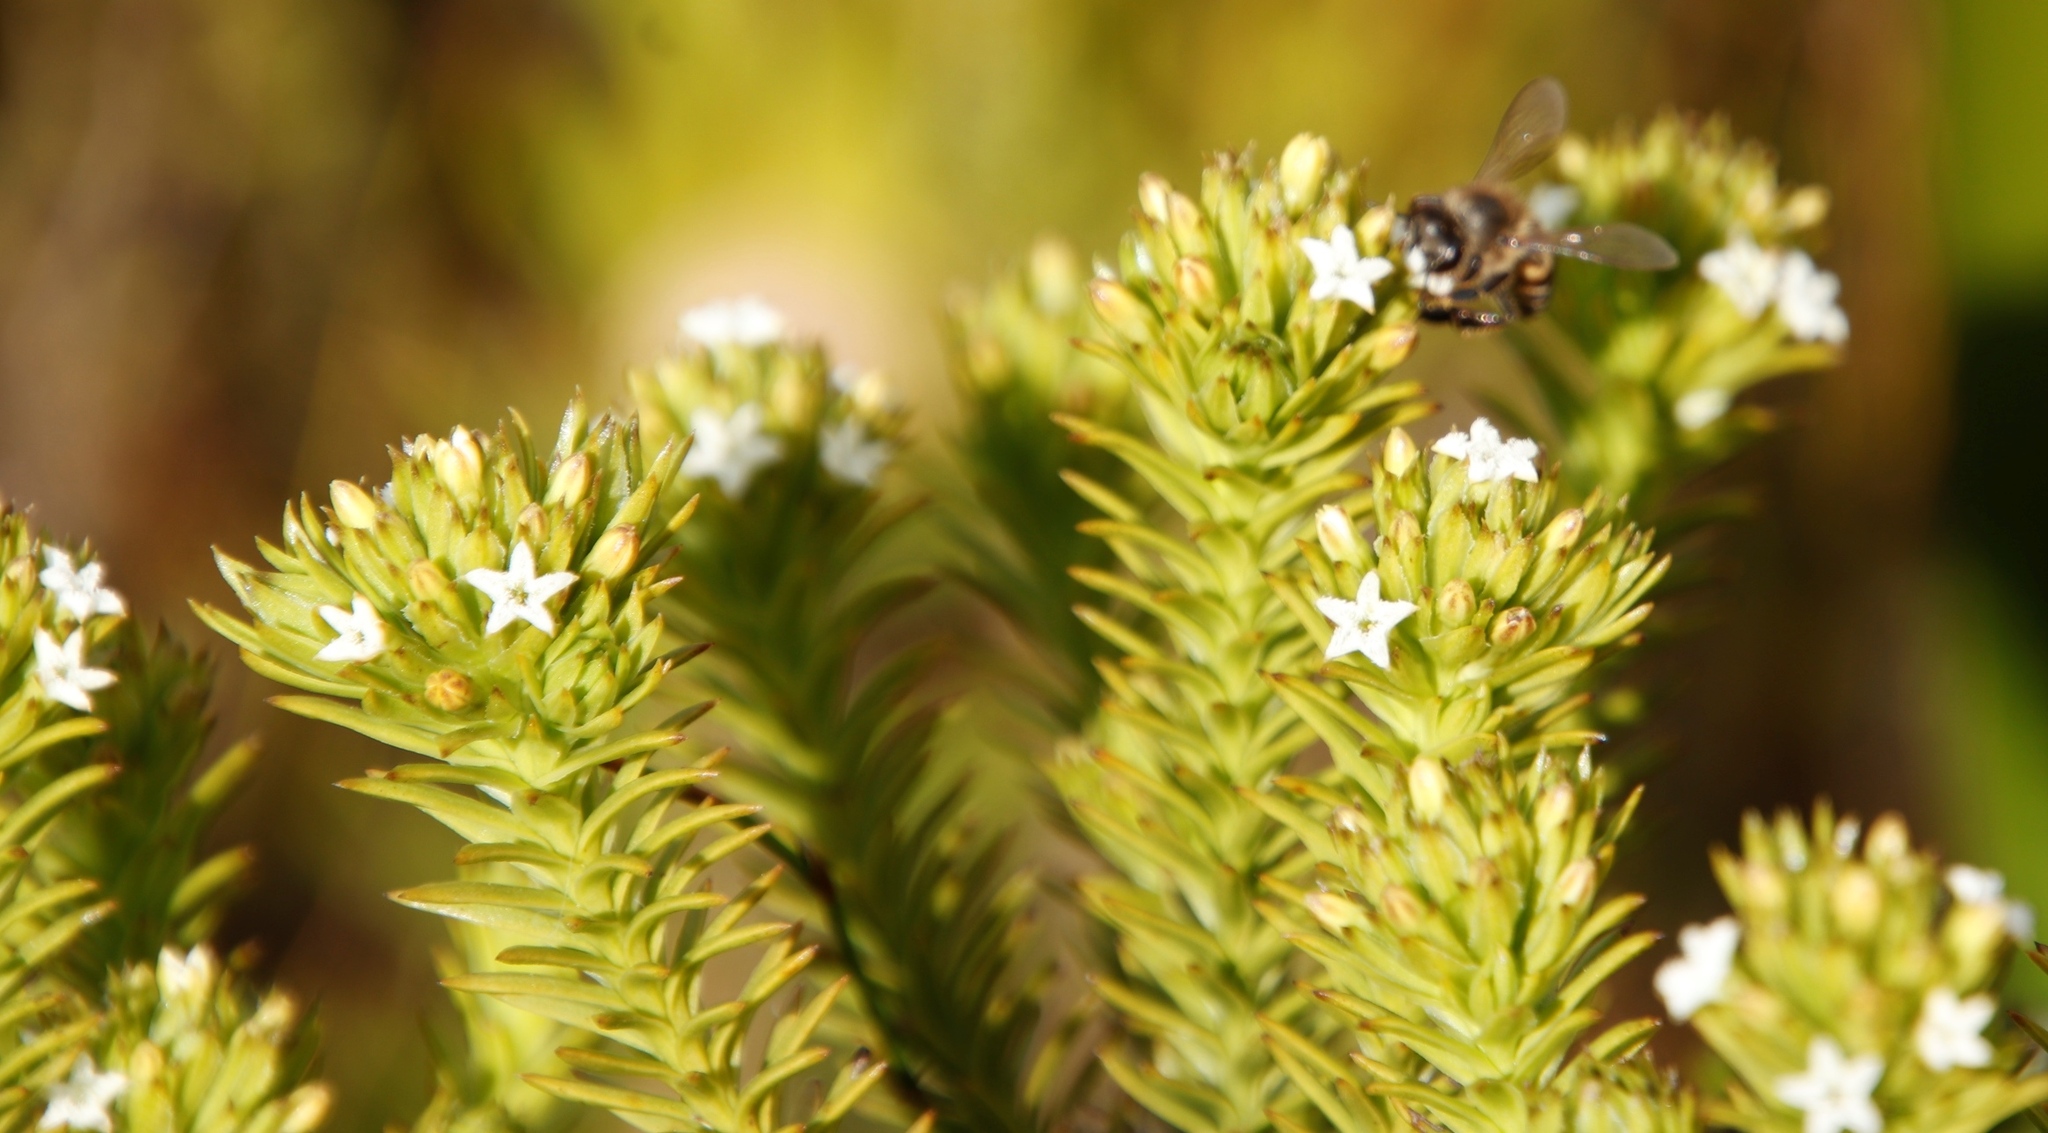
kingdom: Plantae
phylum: Tracheophyta
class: Magnoliopsida
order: Santalales
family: Thesiaceae
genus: Thesium
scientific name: Thesium viridifolium
